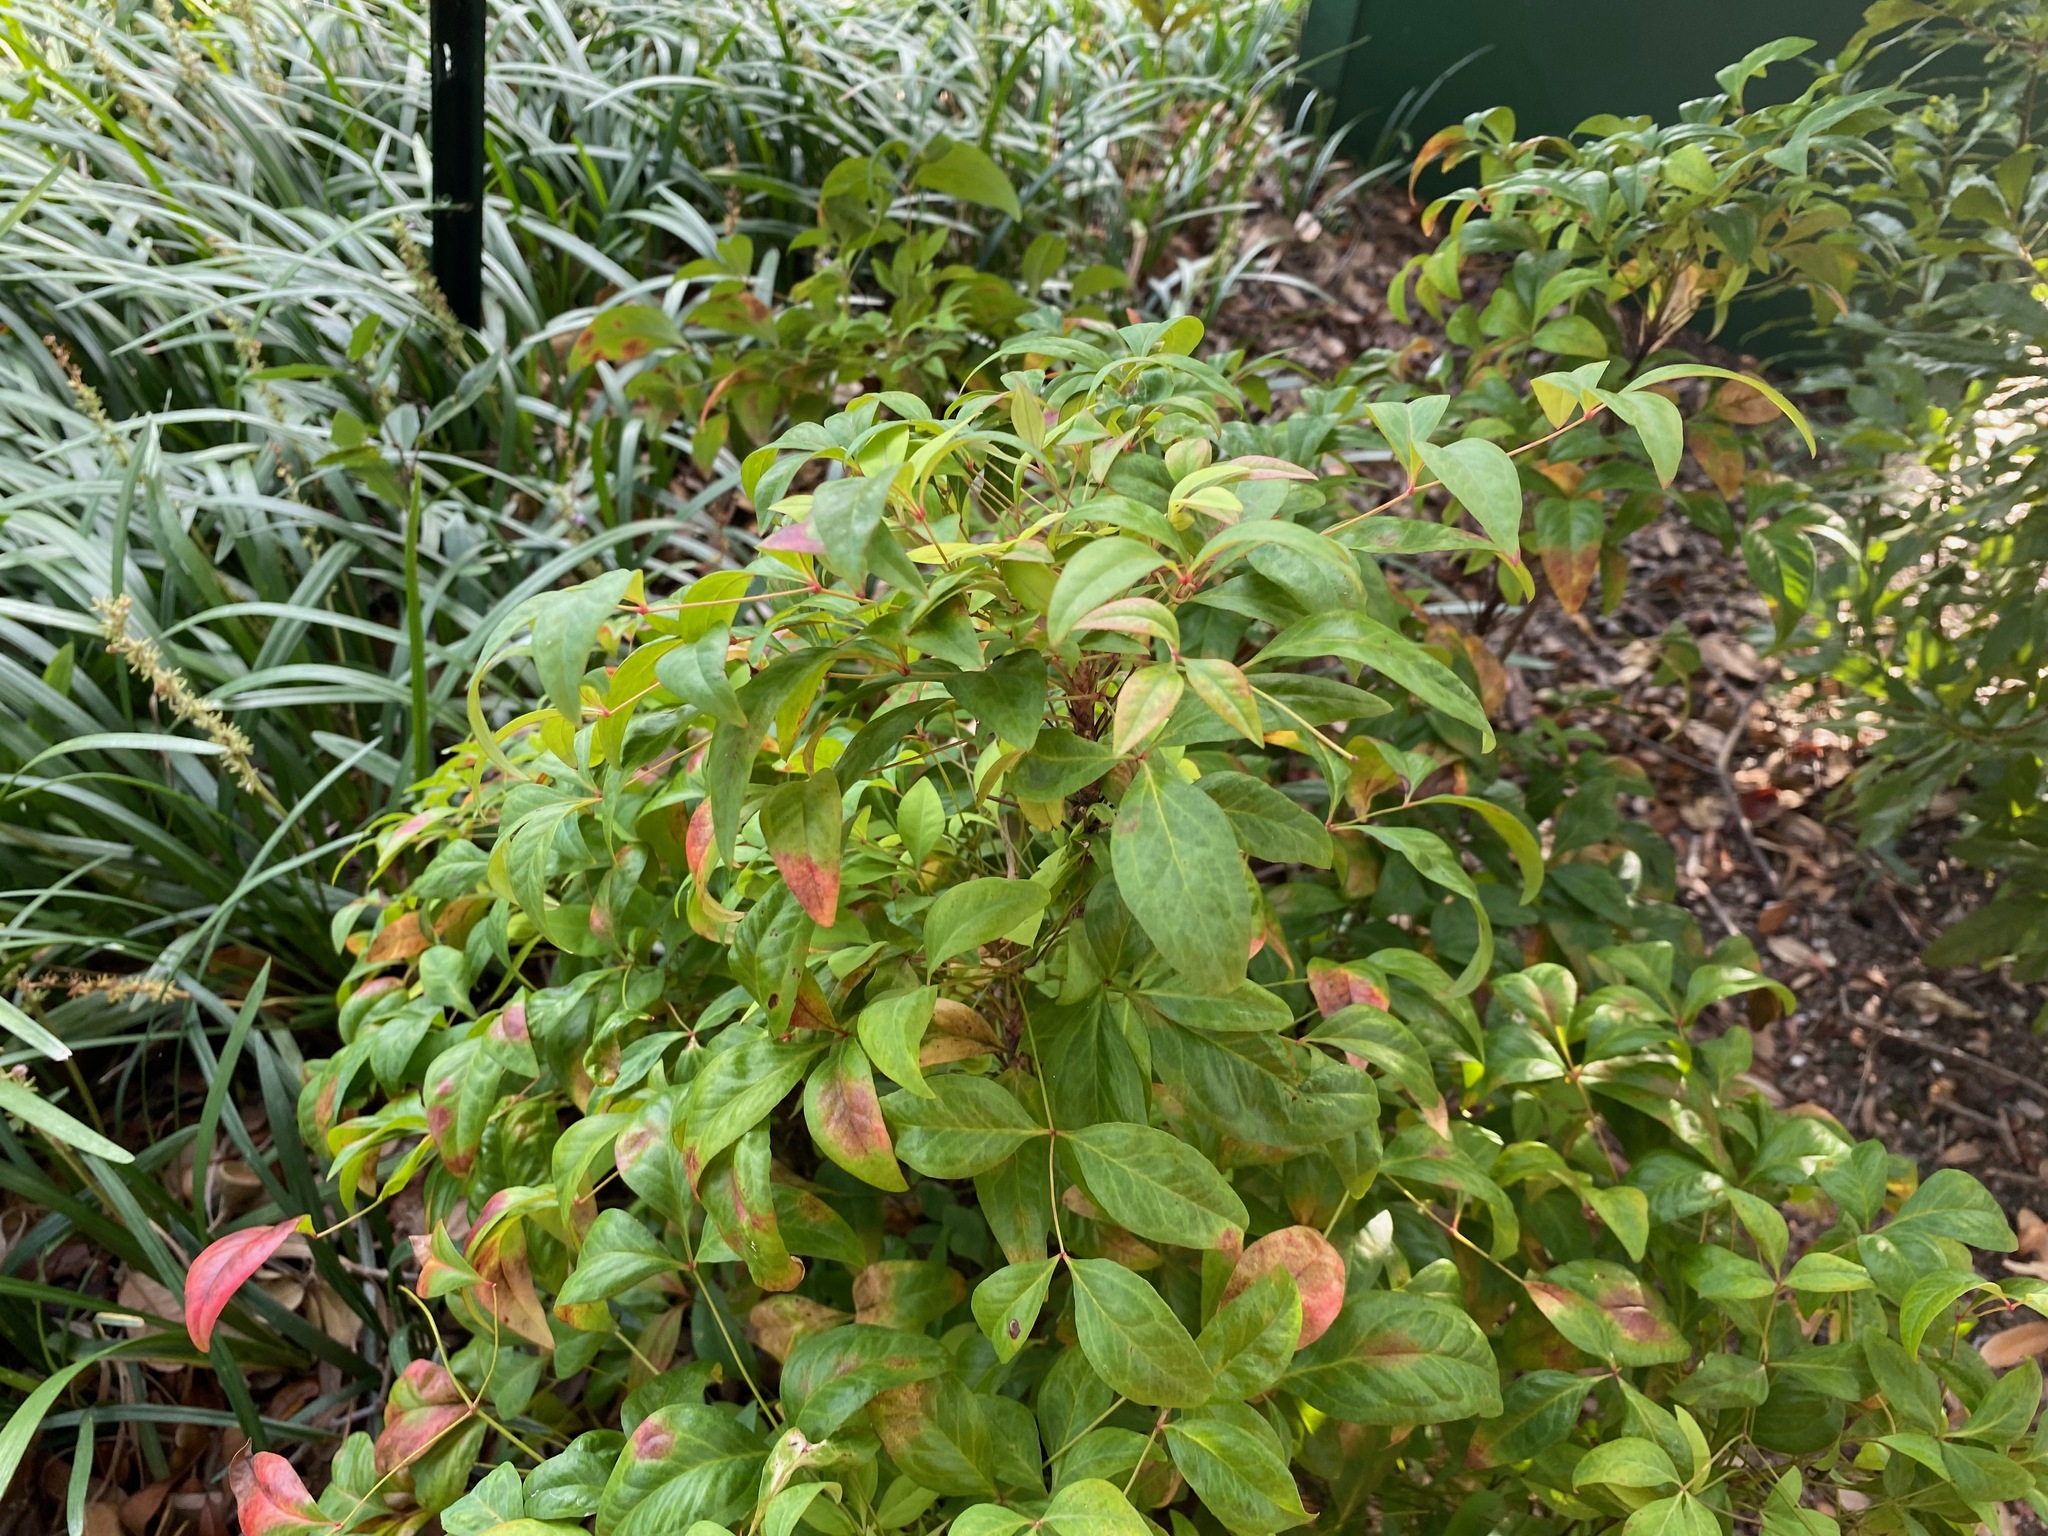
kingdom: Plantae
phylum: Tracheophyta
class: Magnoliopsida
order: Ranunculales
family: Berberidaceae
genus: Nandina
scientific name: Nandina domestica
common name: Sacred bamboo
